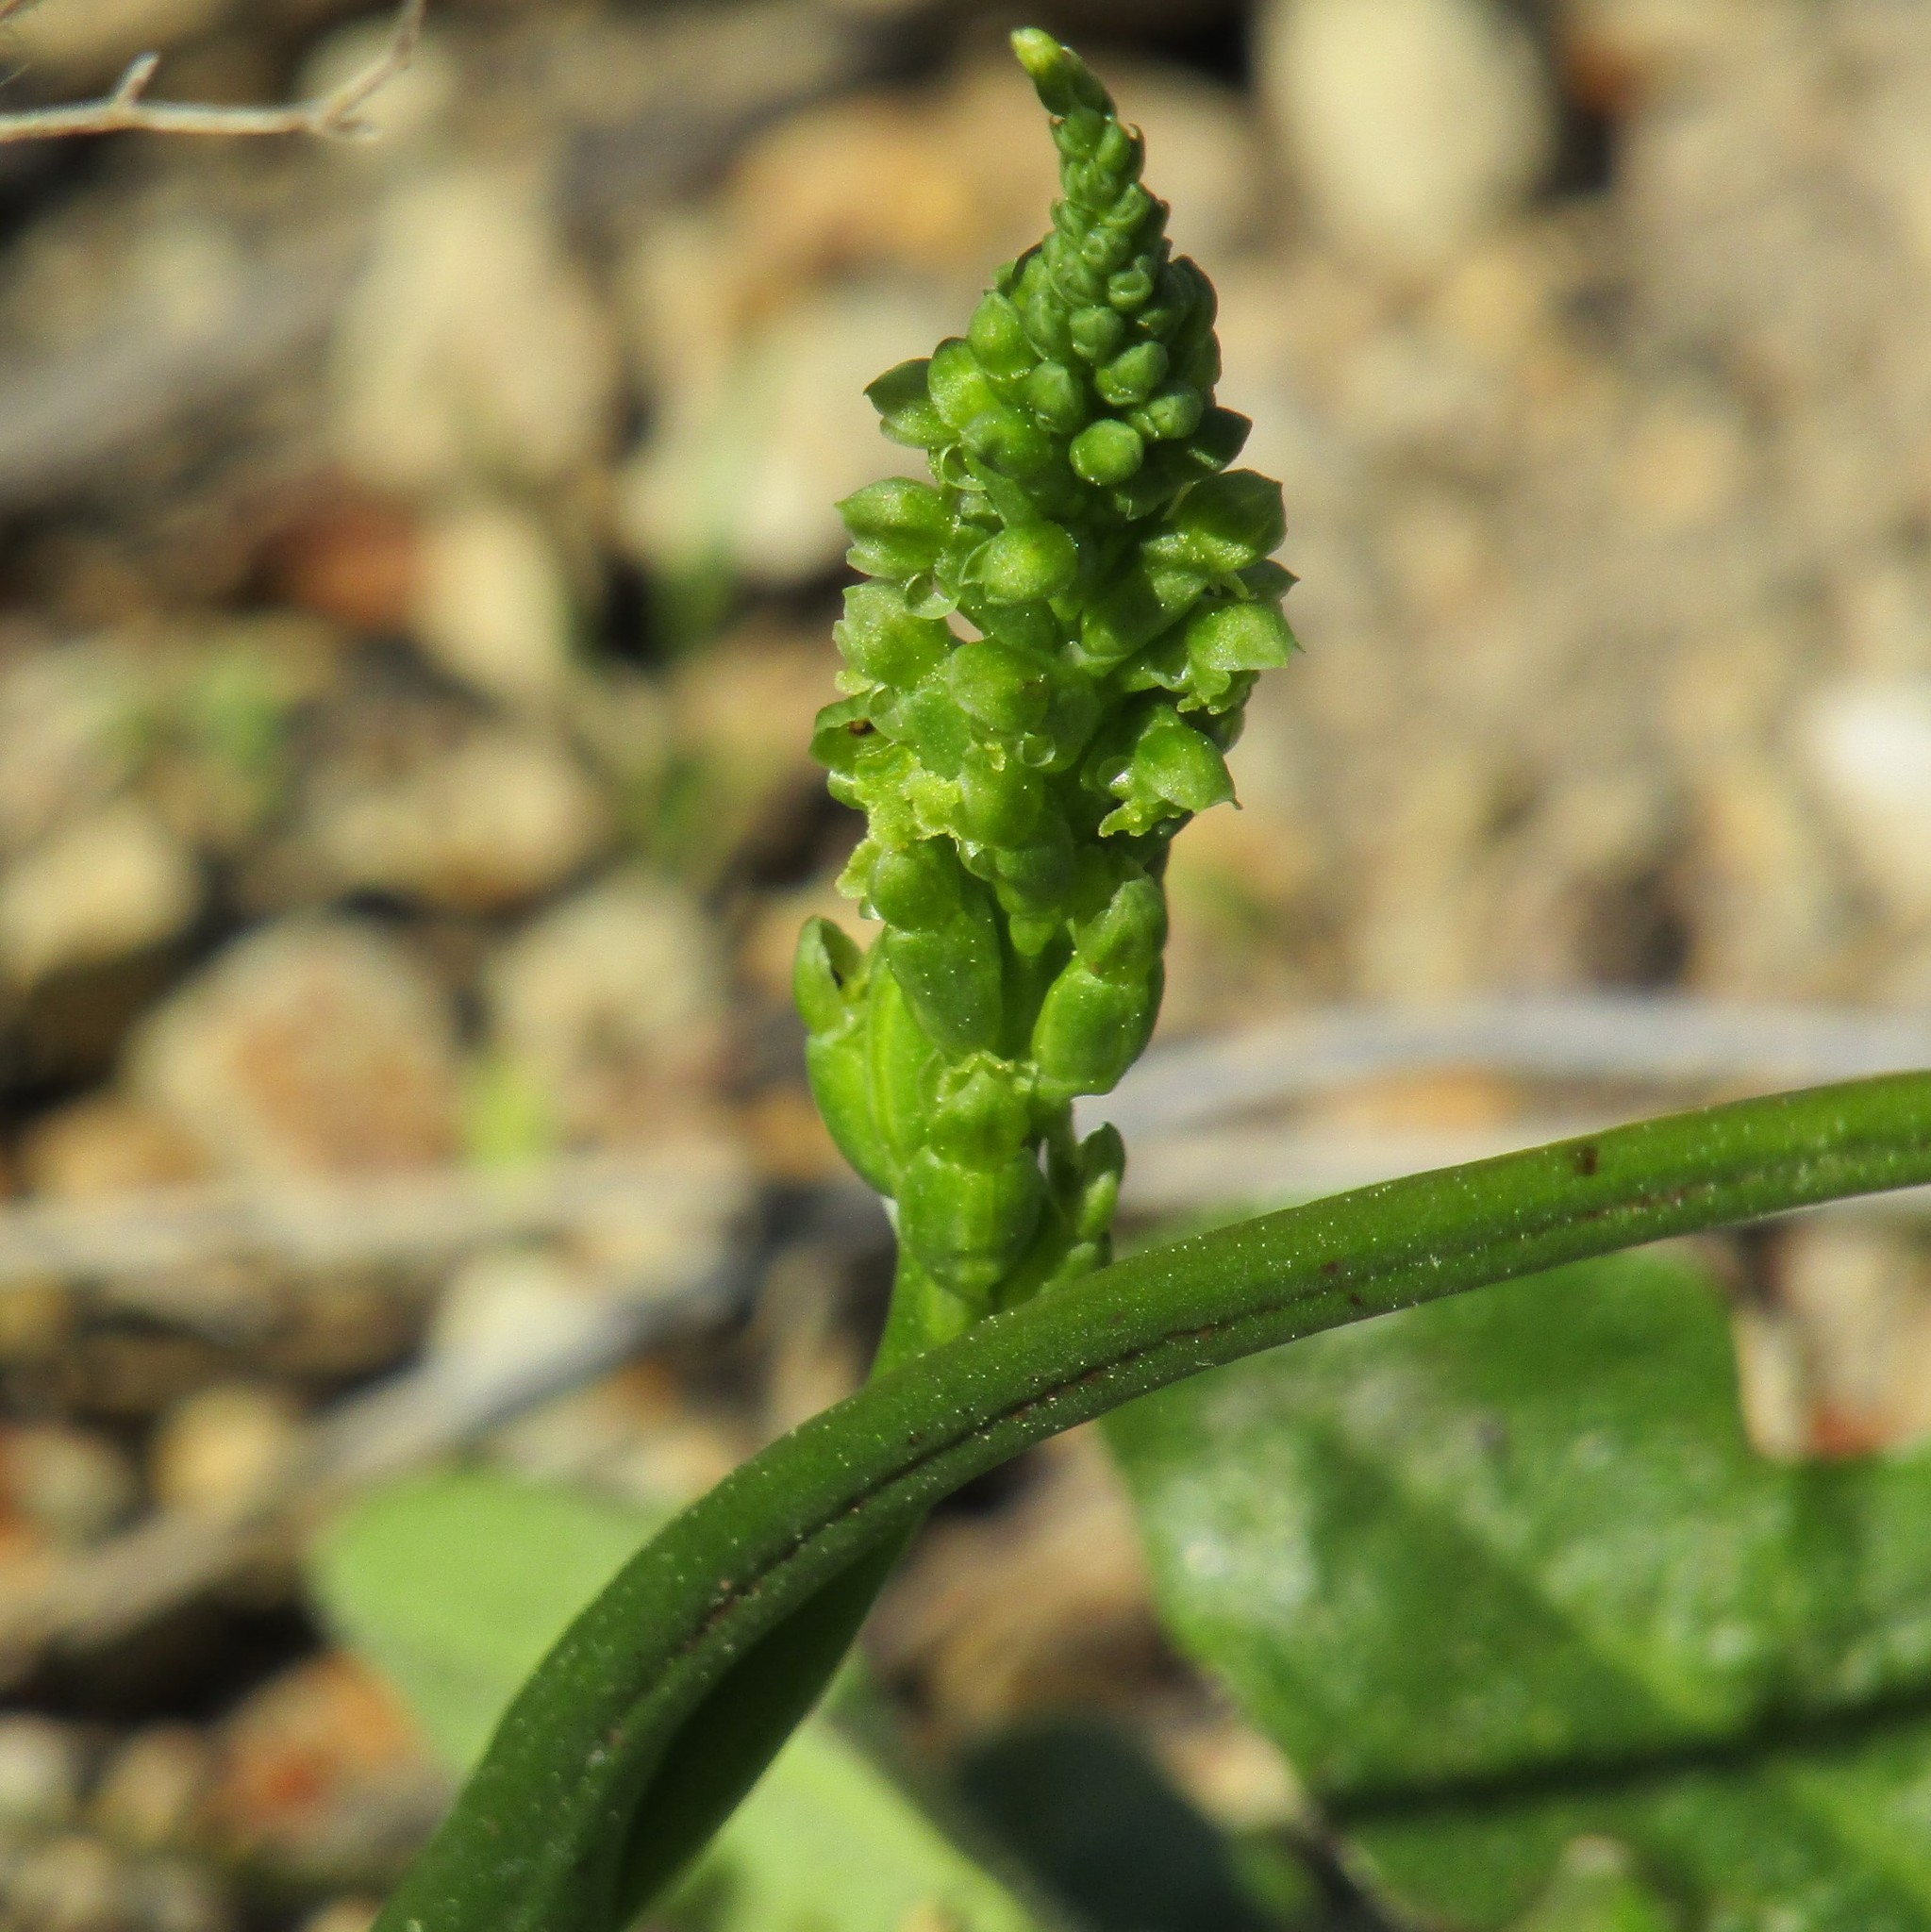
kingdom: Plantae
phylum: Tracheophyta
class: Liliopsida
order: Asparagales
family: Orchidaceae
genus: Microtis
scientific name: Microtis unifolia
